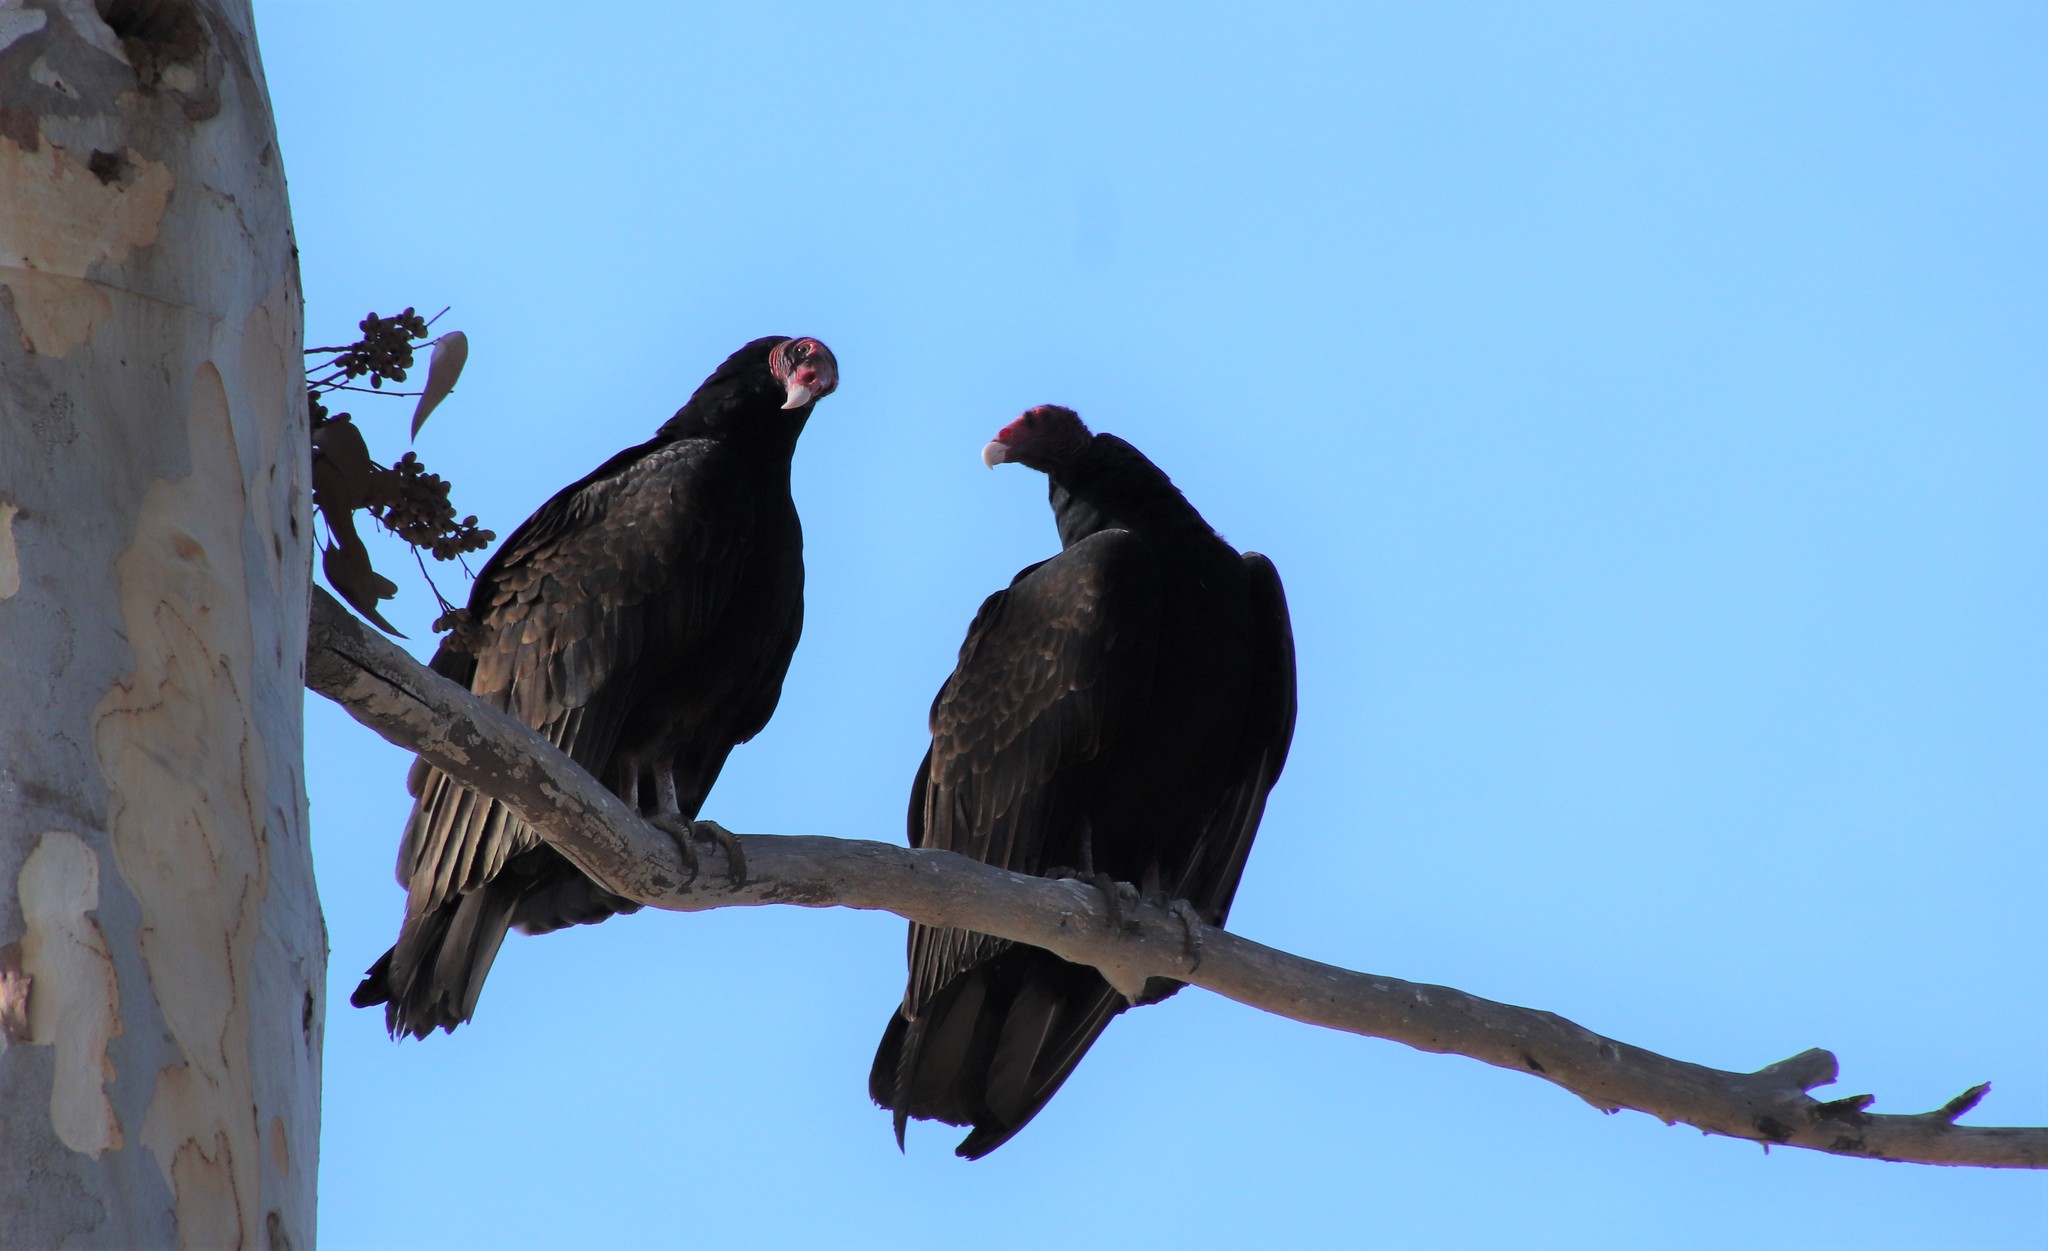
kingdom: Animalia
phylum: Chordata
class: Aves
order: Accipitriformes
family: Cathartidae
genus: Cathartes
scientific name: Cathartes aura
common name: Turkey vulture
